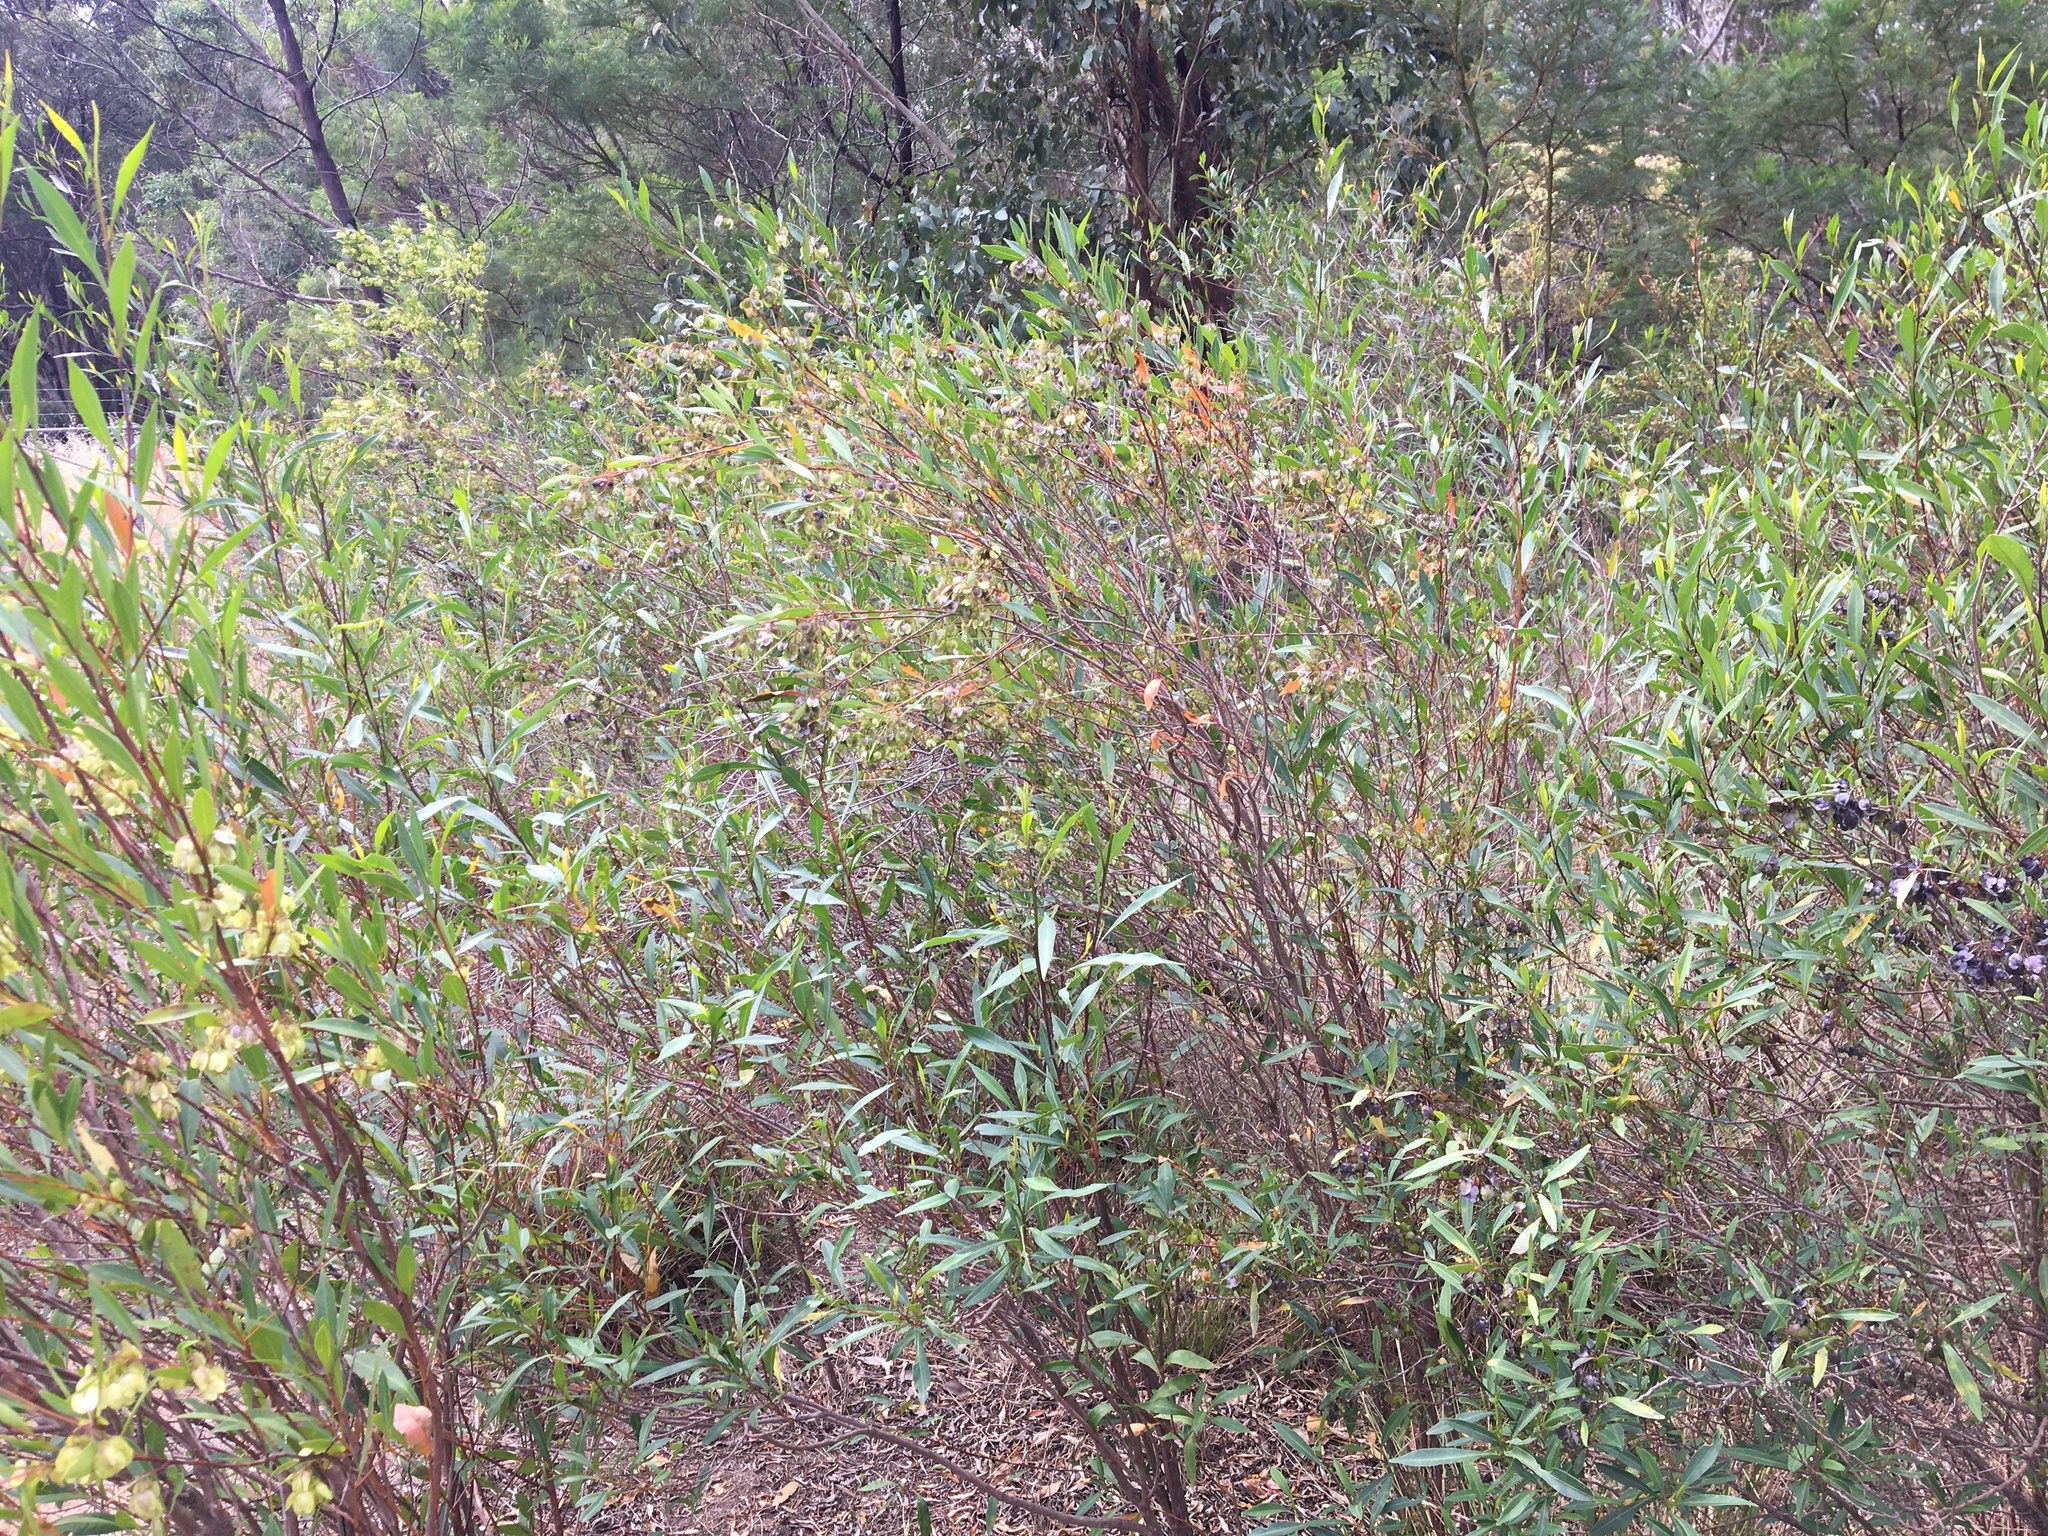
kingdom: Plantae
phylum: Tracheophyta
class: Magnoliopsida
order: Sapindales
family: Sapindaceae
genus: Dodonaea
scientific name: Dodonaea triquetra
